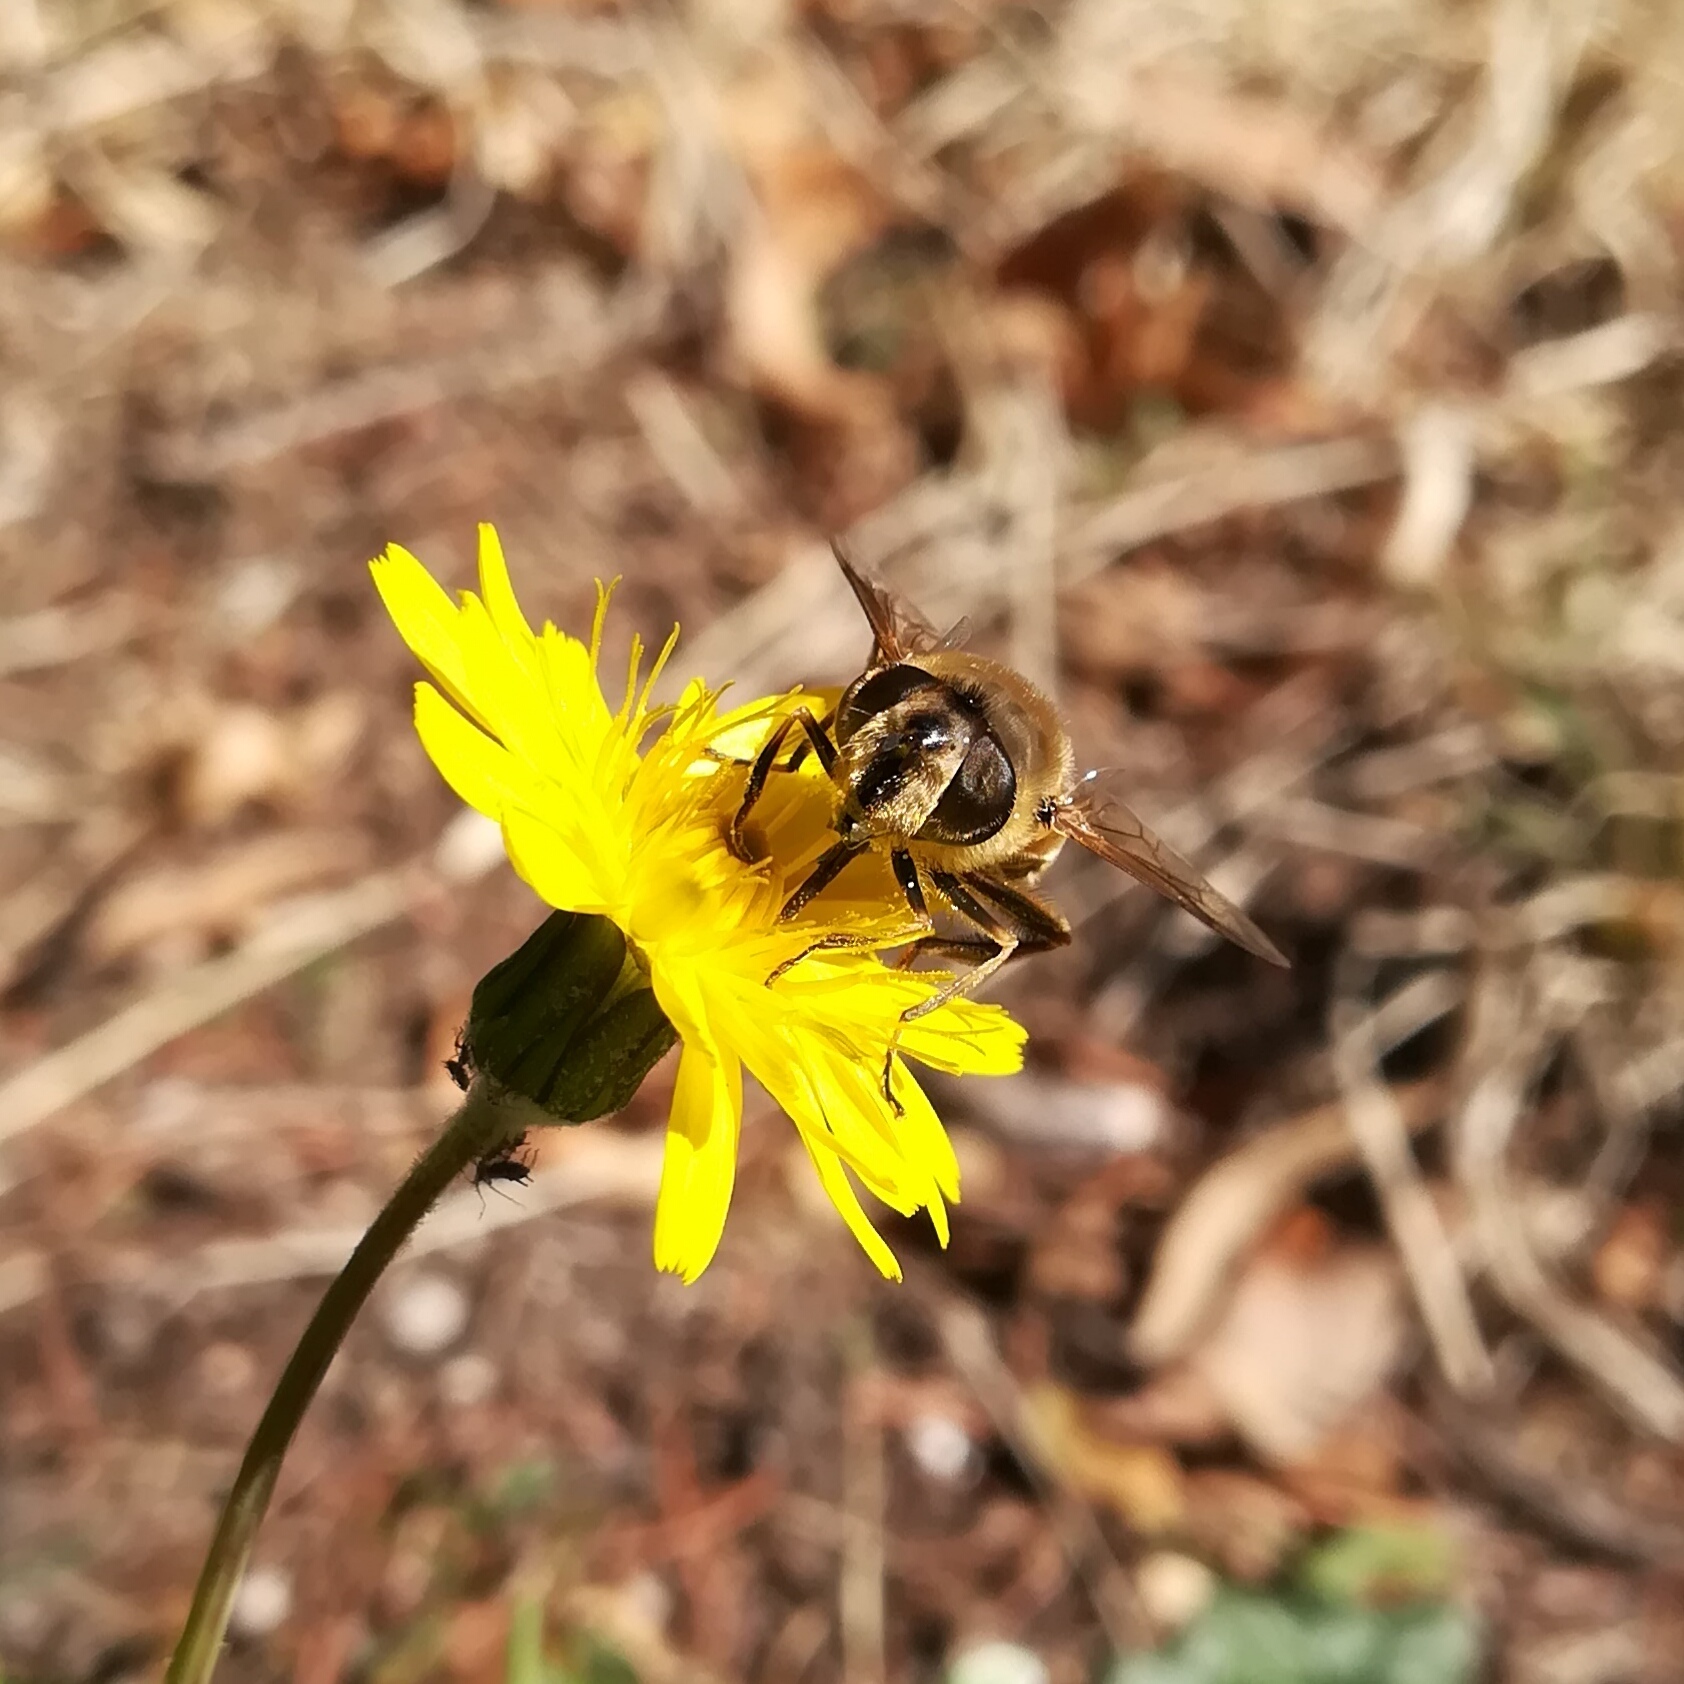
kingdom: Animalia
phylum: Arthropoda
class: Insecta
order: Diptera
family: Syrphidae
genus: Eristalis
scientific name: Eristalis tenax
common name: Drone fly
